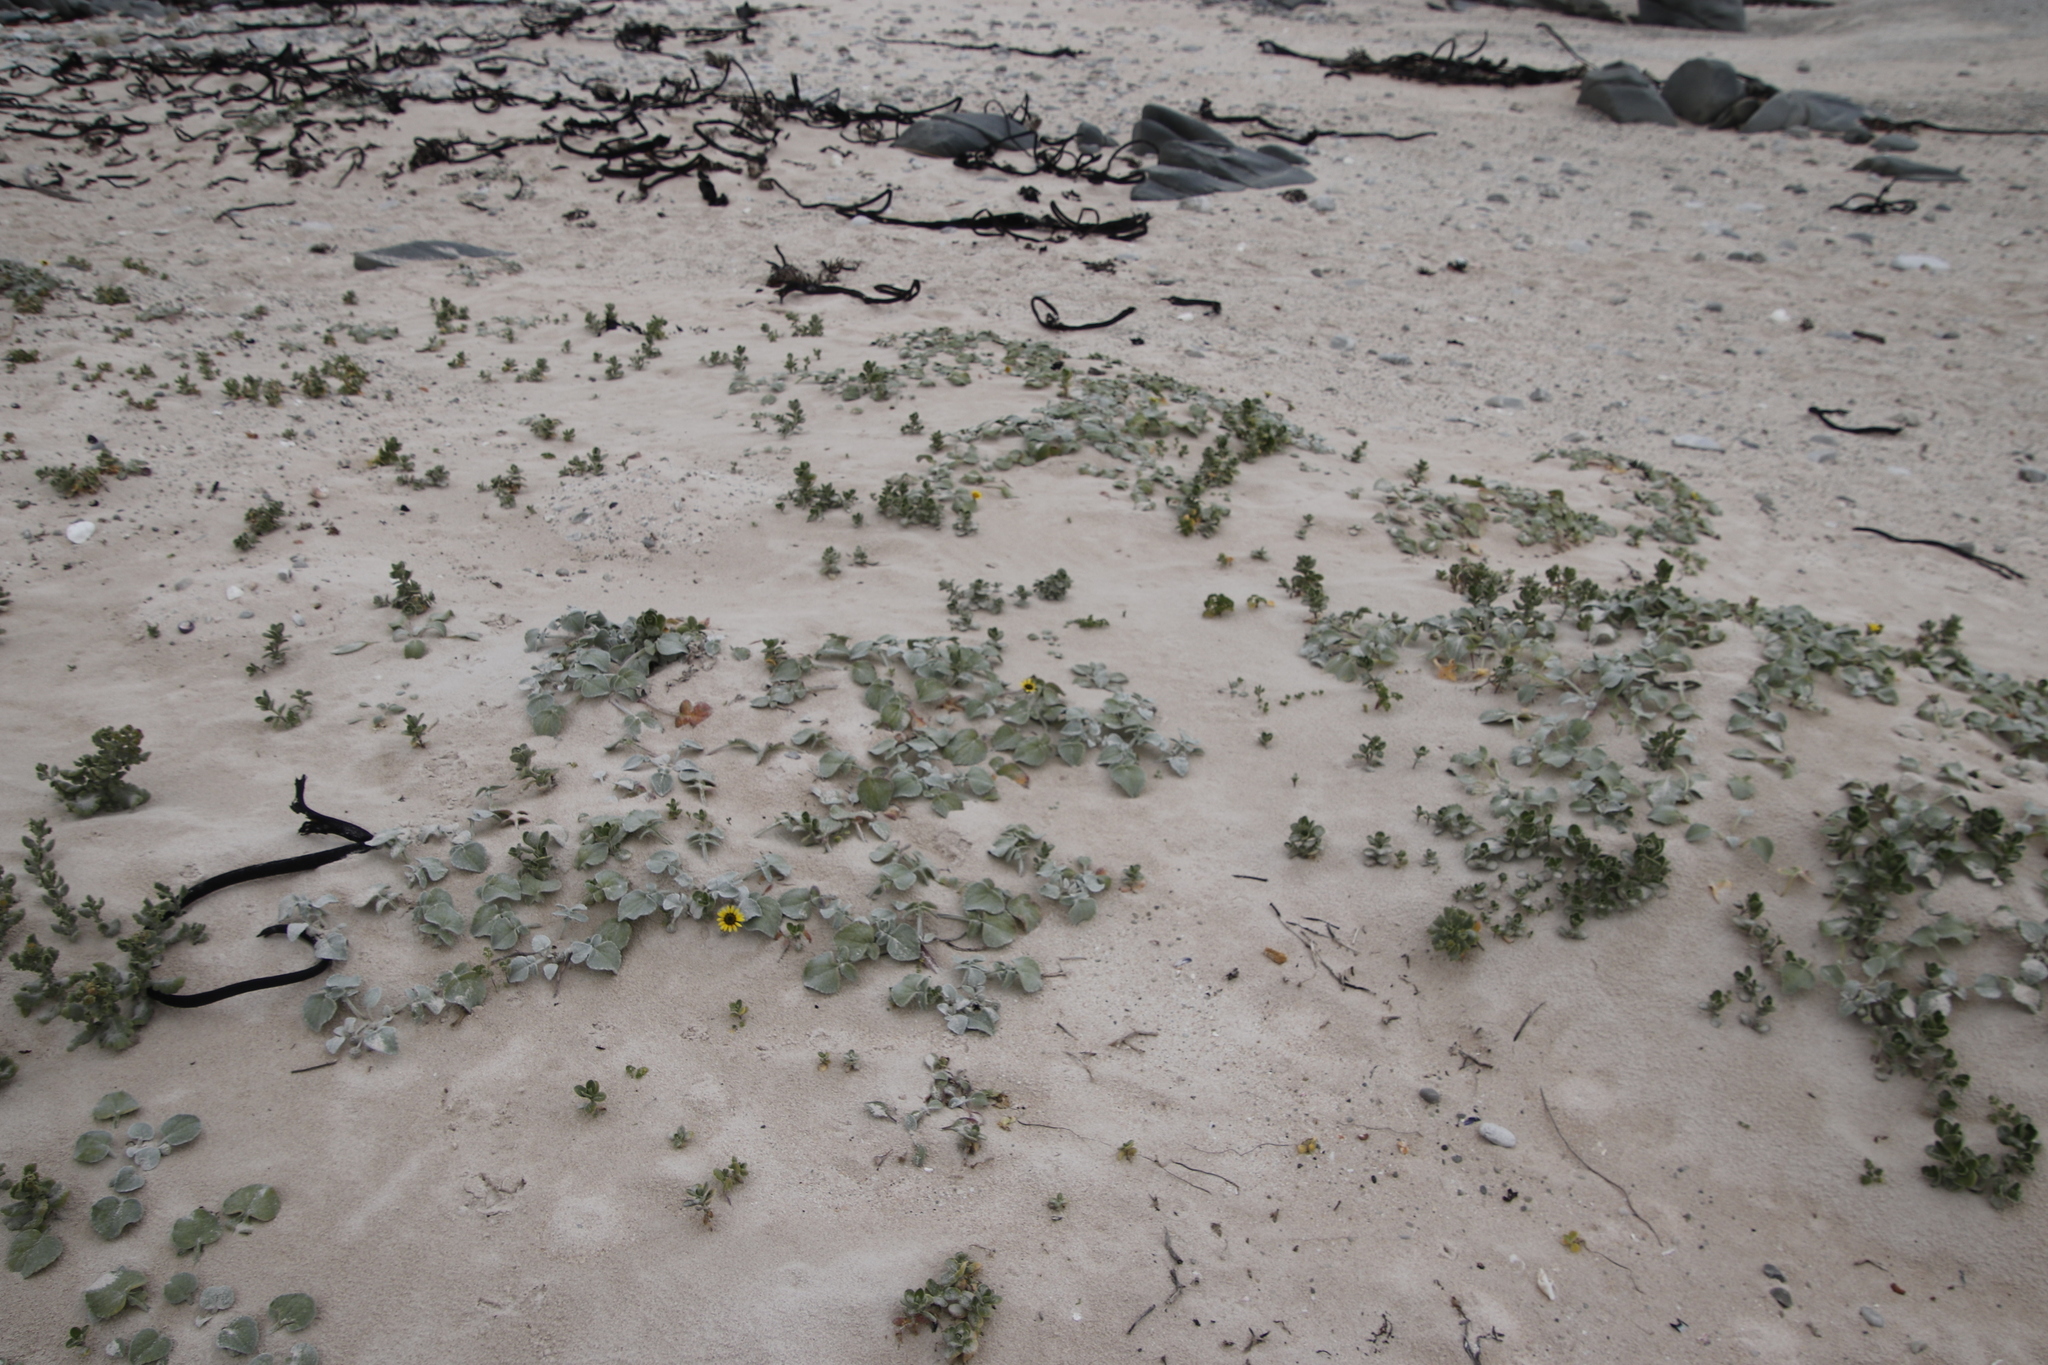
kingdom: Plantae
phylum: Tracheophyta
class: Magnoliopsida
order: Asterales
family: Asteraceae
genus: Arctotheca
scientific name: Arctotheca populifolia
